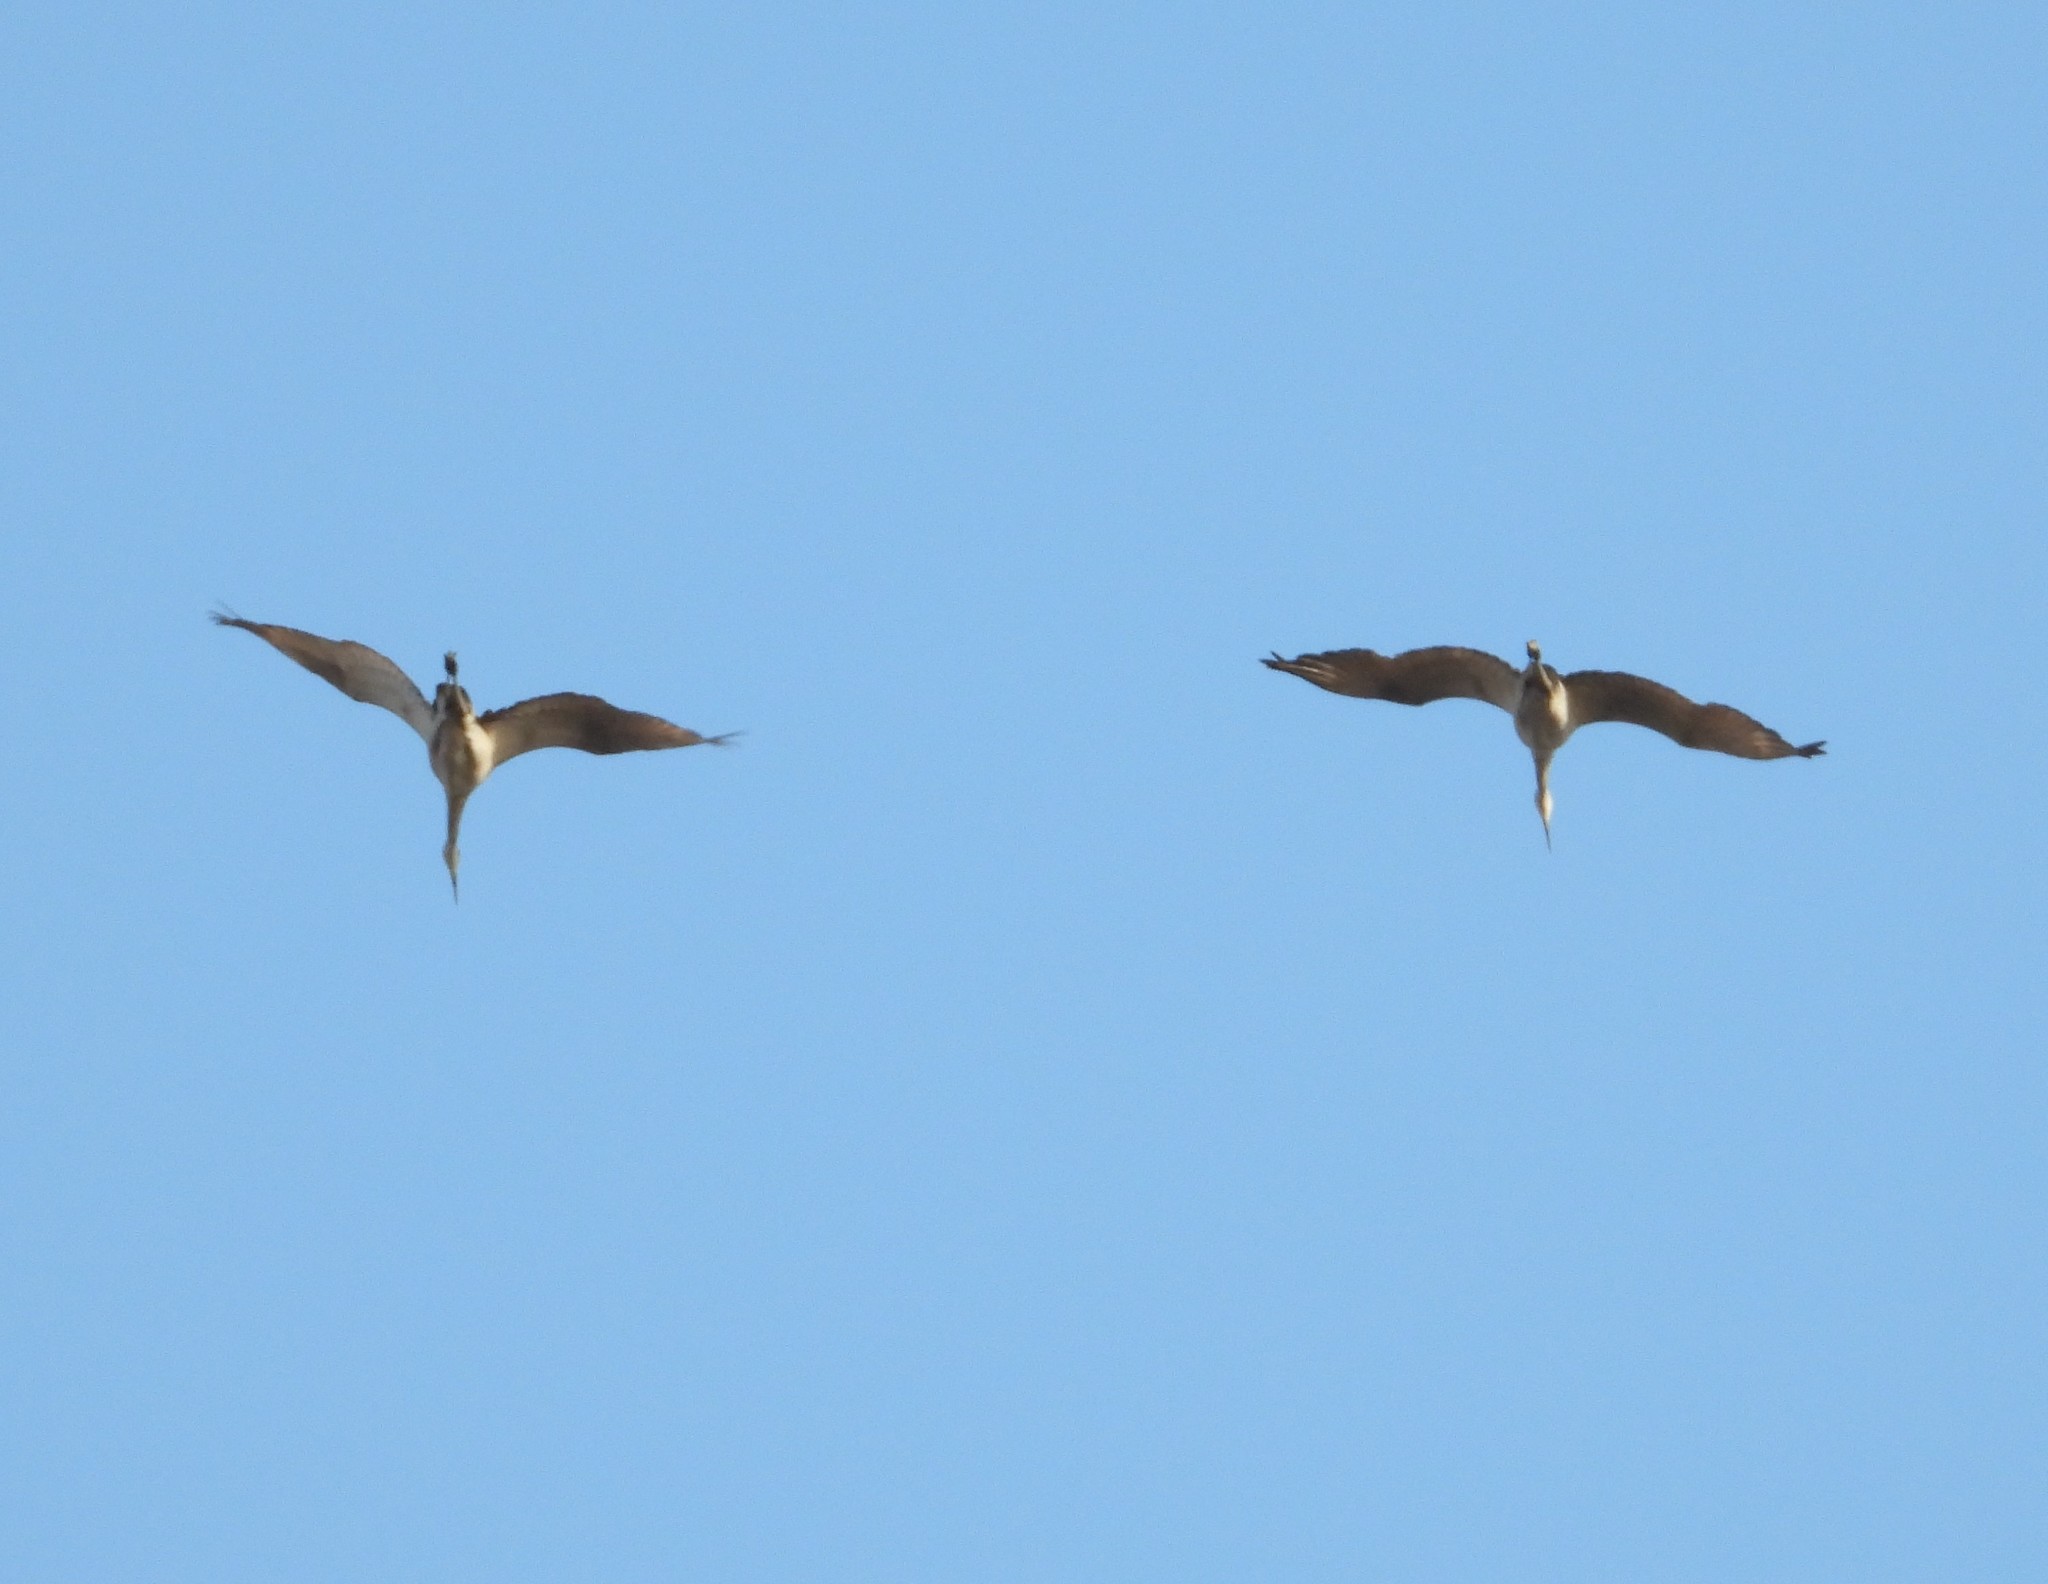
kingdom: Animalia
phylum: Chordata
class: Aves
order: Gruiformes
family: Gruidae
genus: Grus
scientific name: Grus canadensis
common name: Sandhill crane
